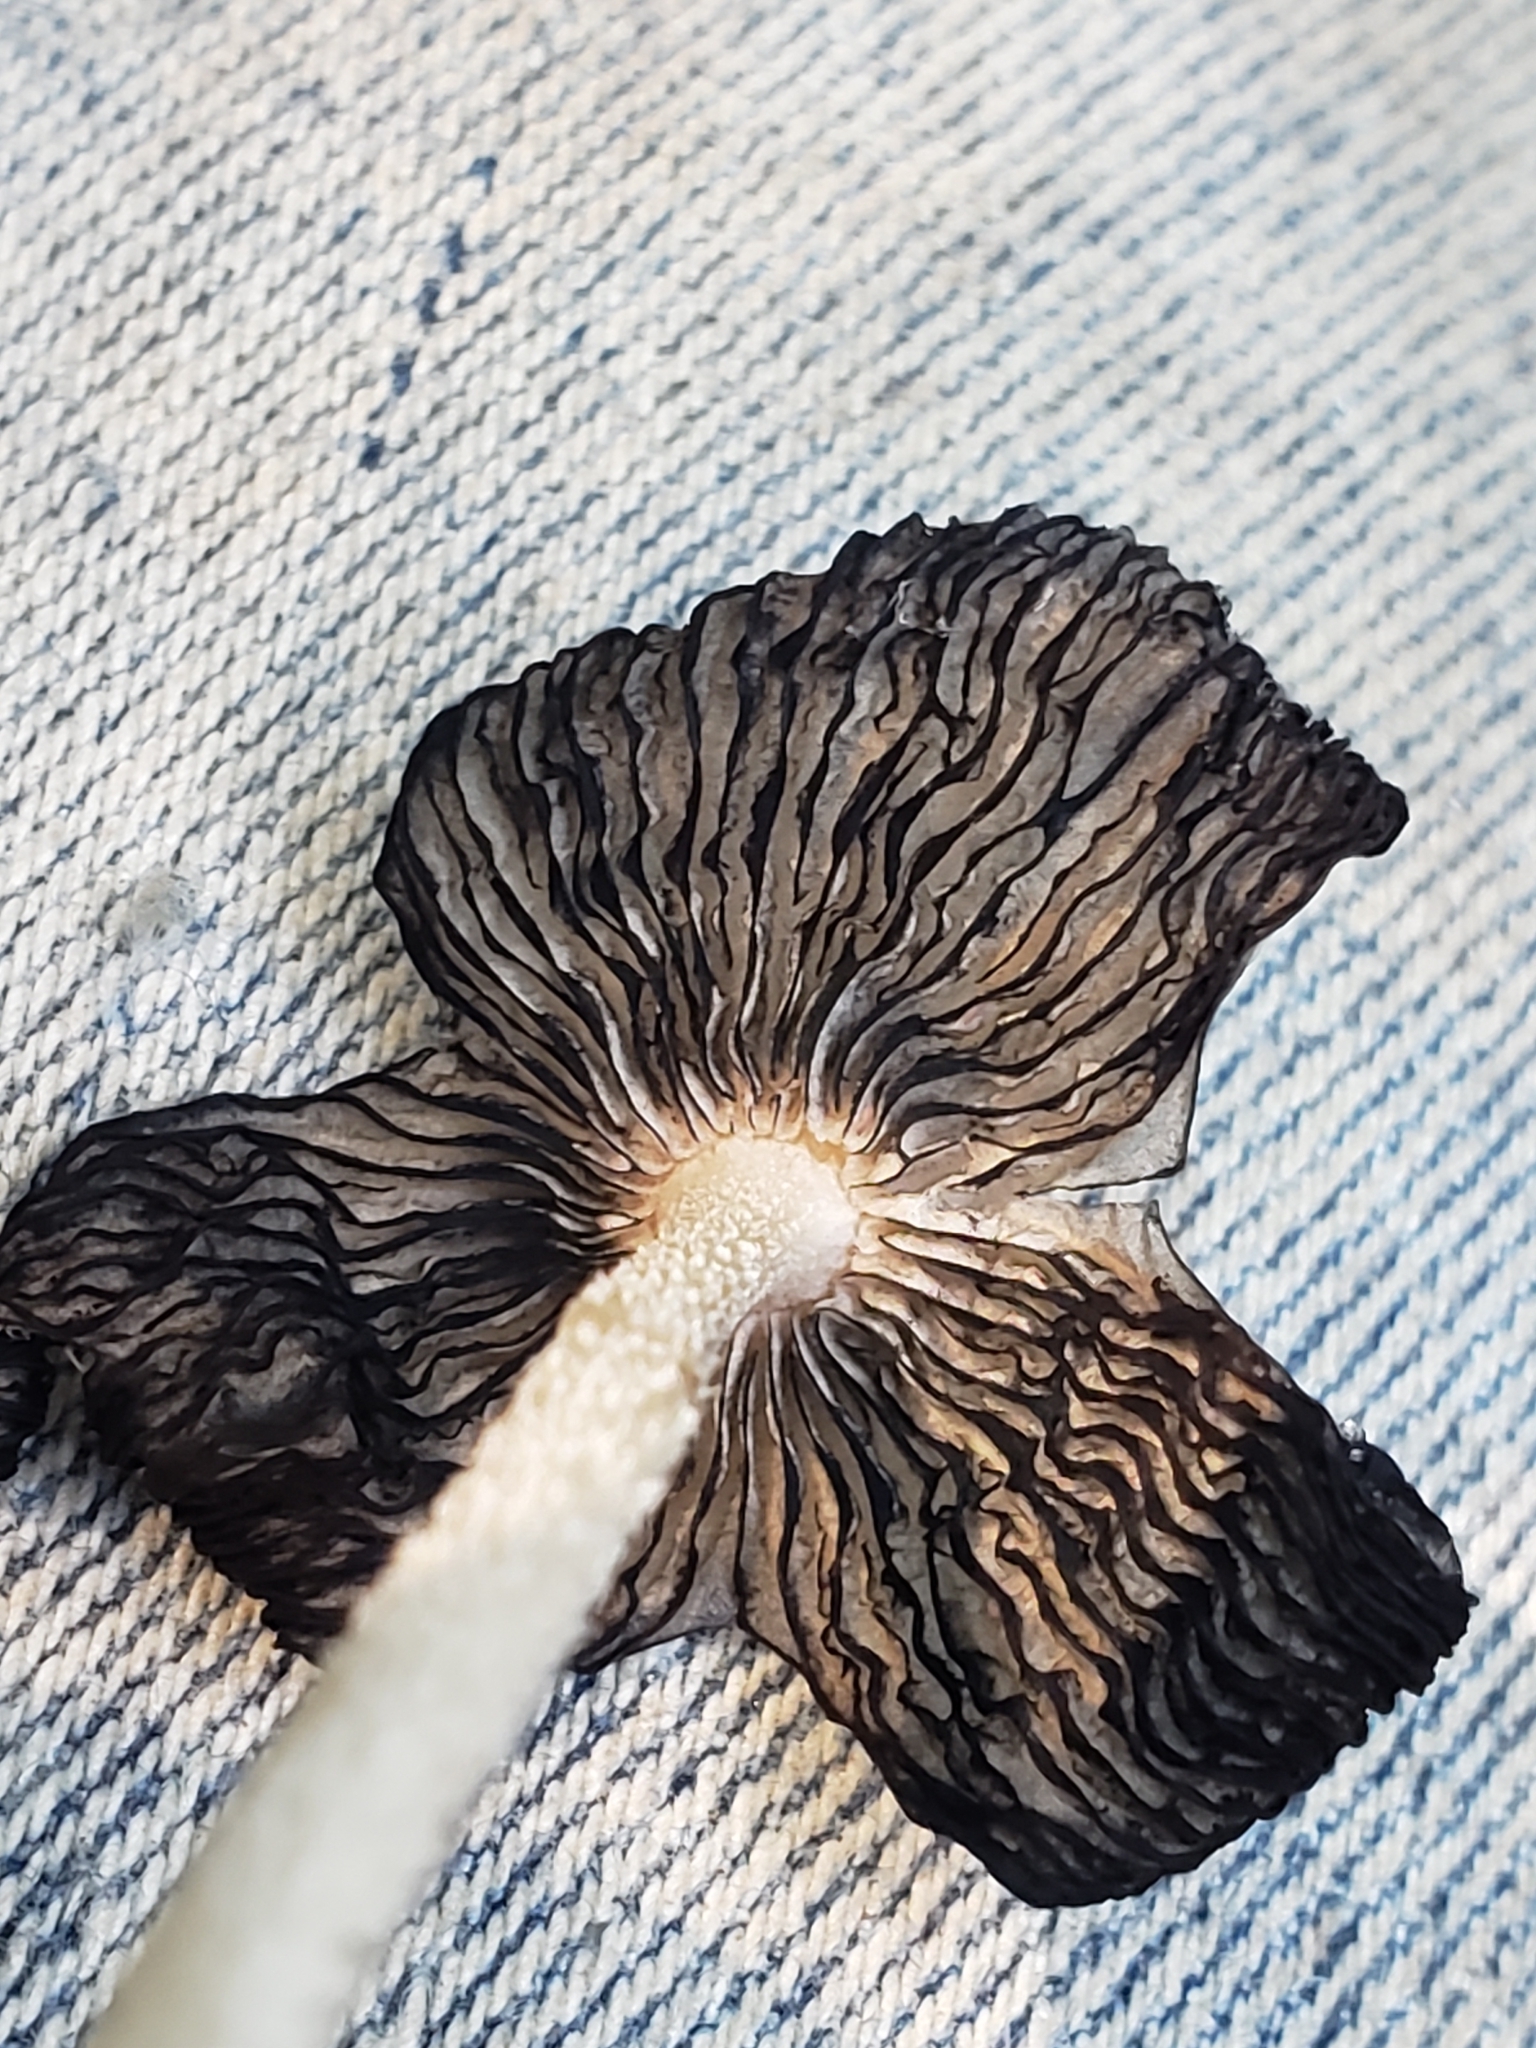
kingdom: Fungi
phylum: Basidiomycota
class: Agaricomycetes
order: Agaricales
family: Psathyrellaceae
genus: Coprinopsis
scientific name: Coprinopsis lagopus
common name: Hare'sfoot inkcap
